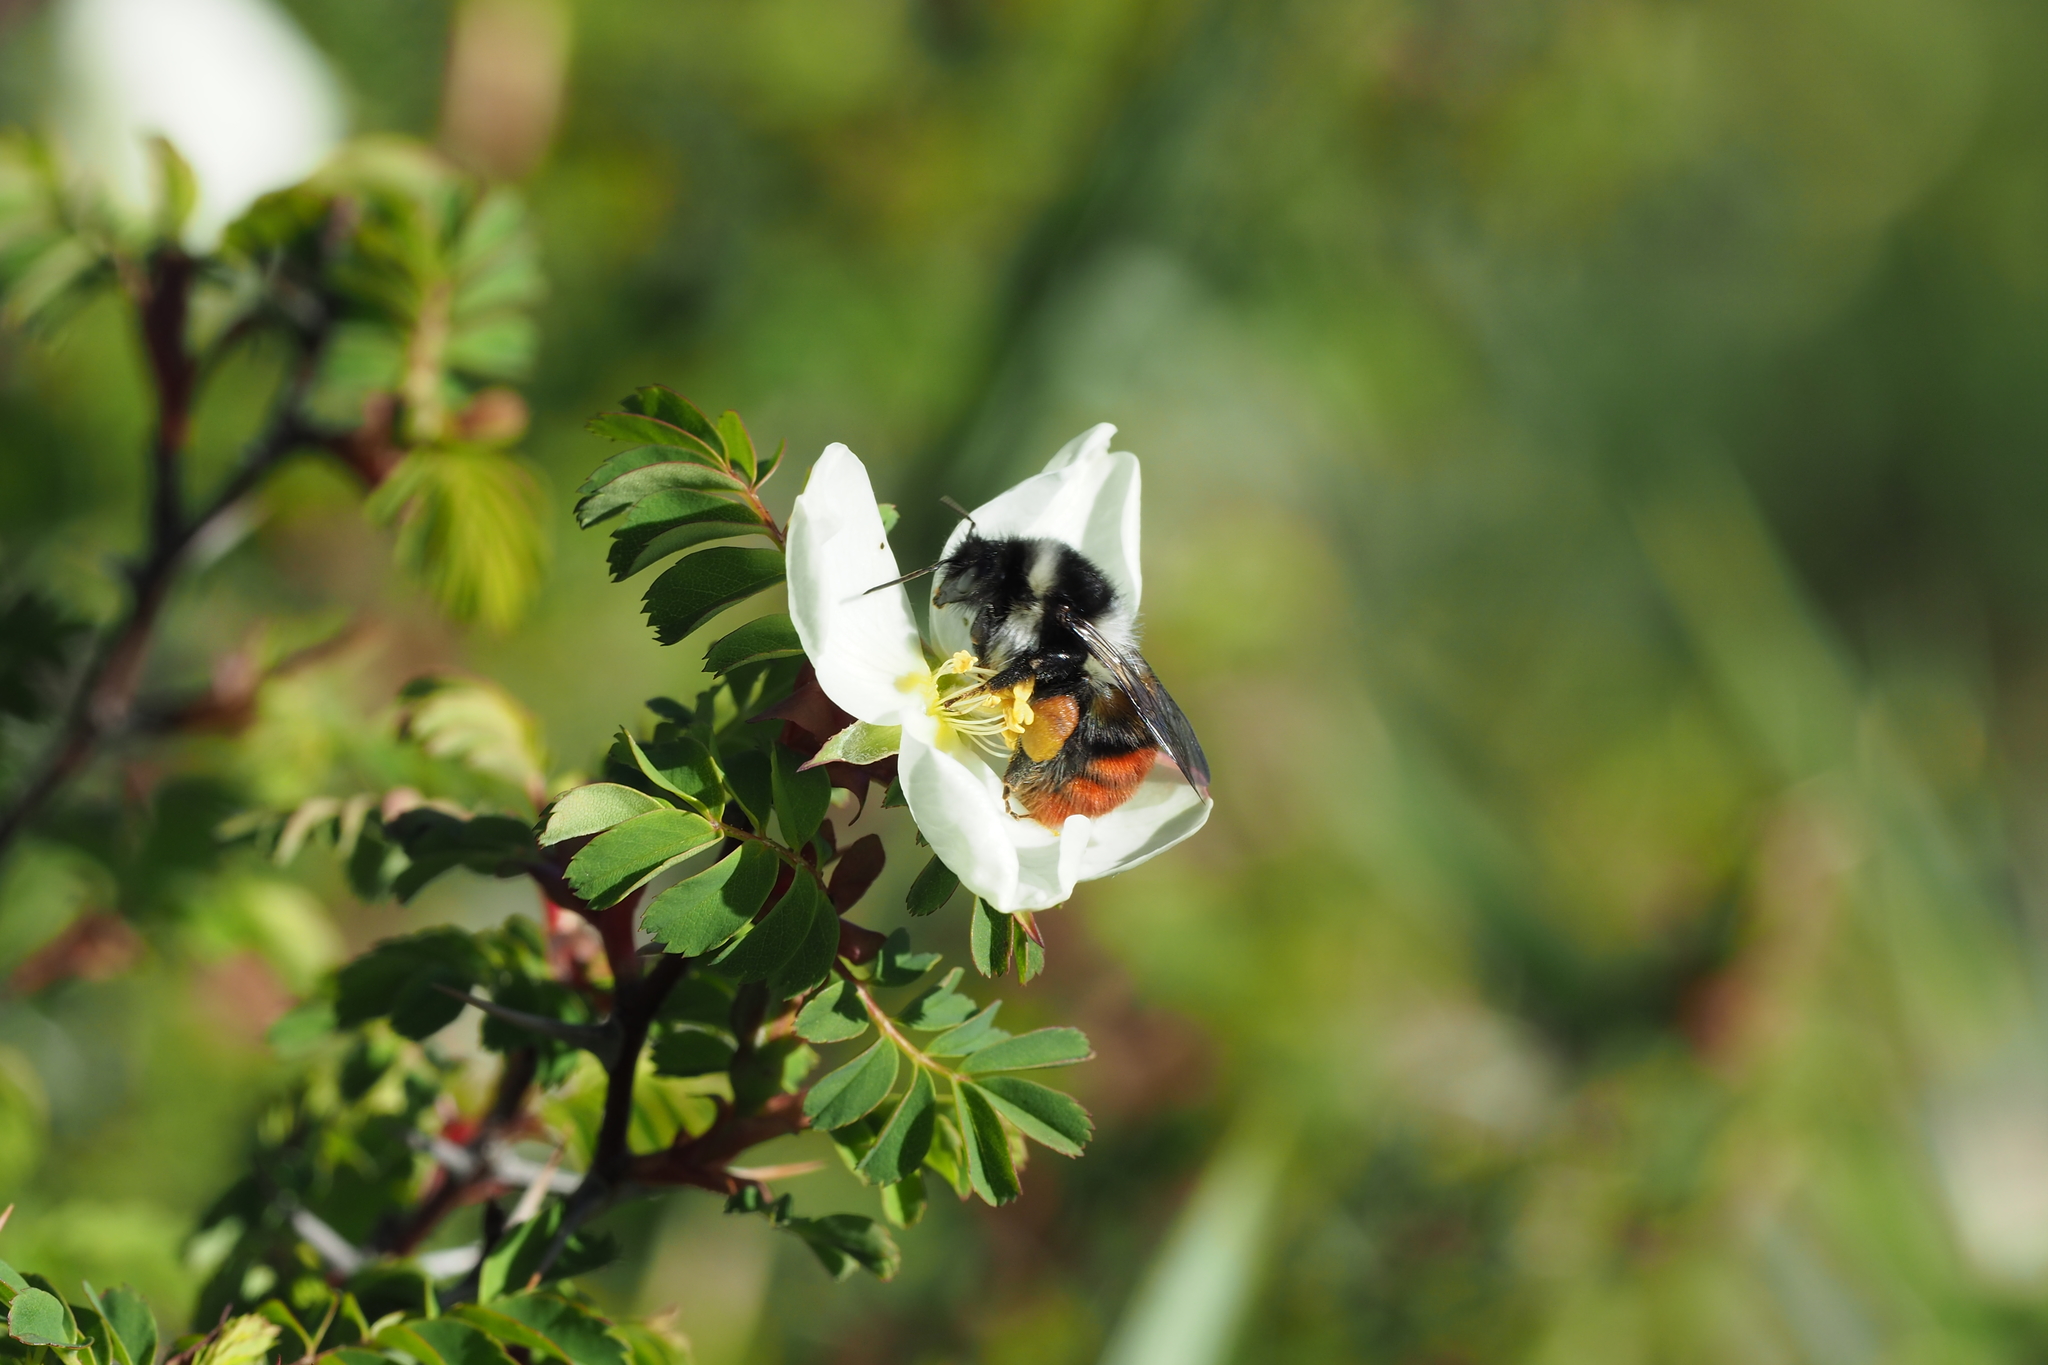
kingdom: Animalia
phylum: Arthropoda
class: Insecta
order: Hymenoptera
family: Apidae
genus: Bombus
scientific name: Bombus formosellus
